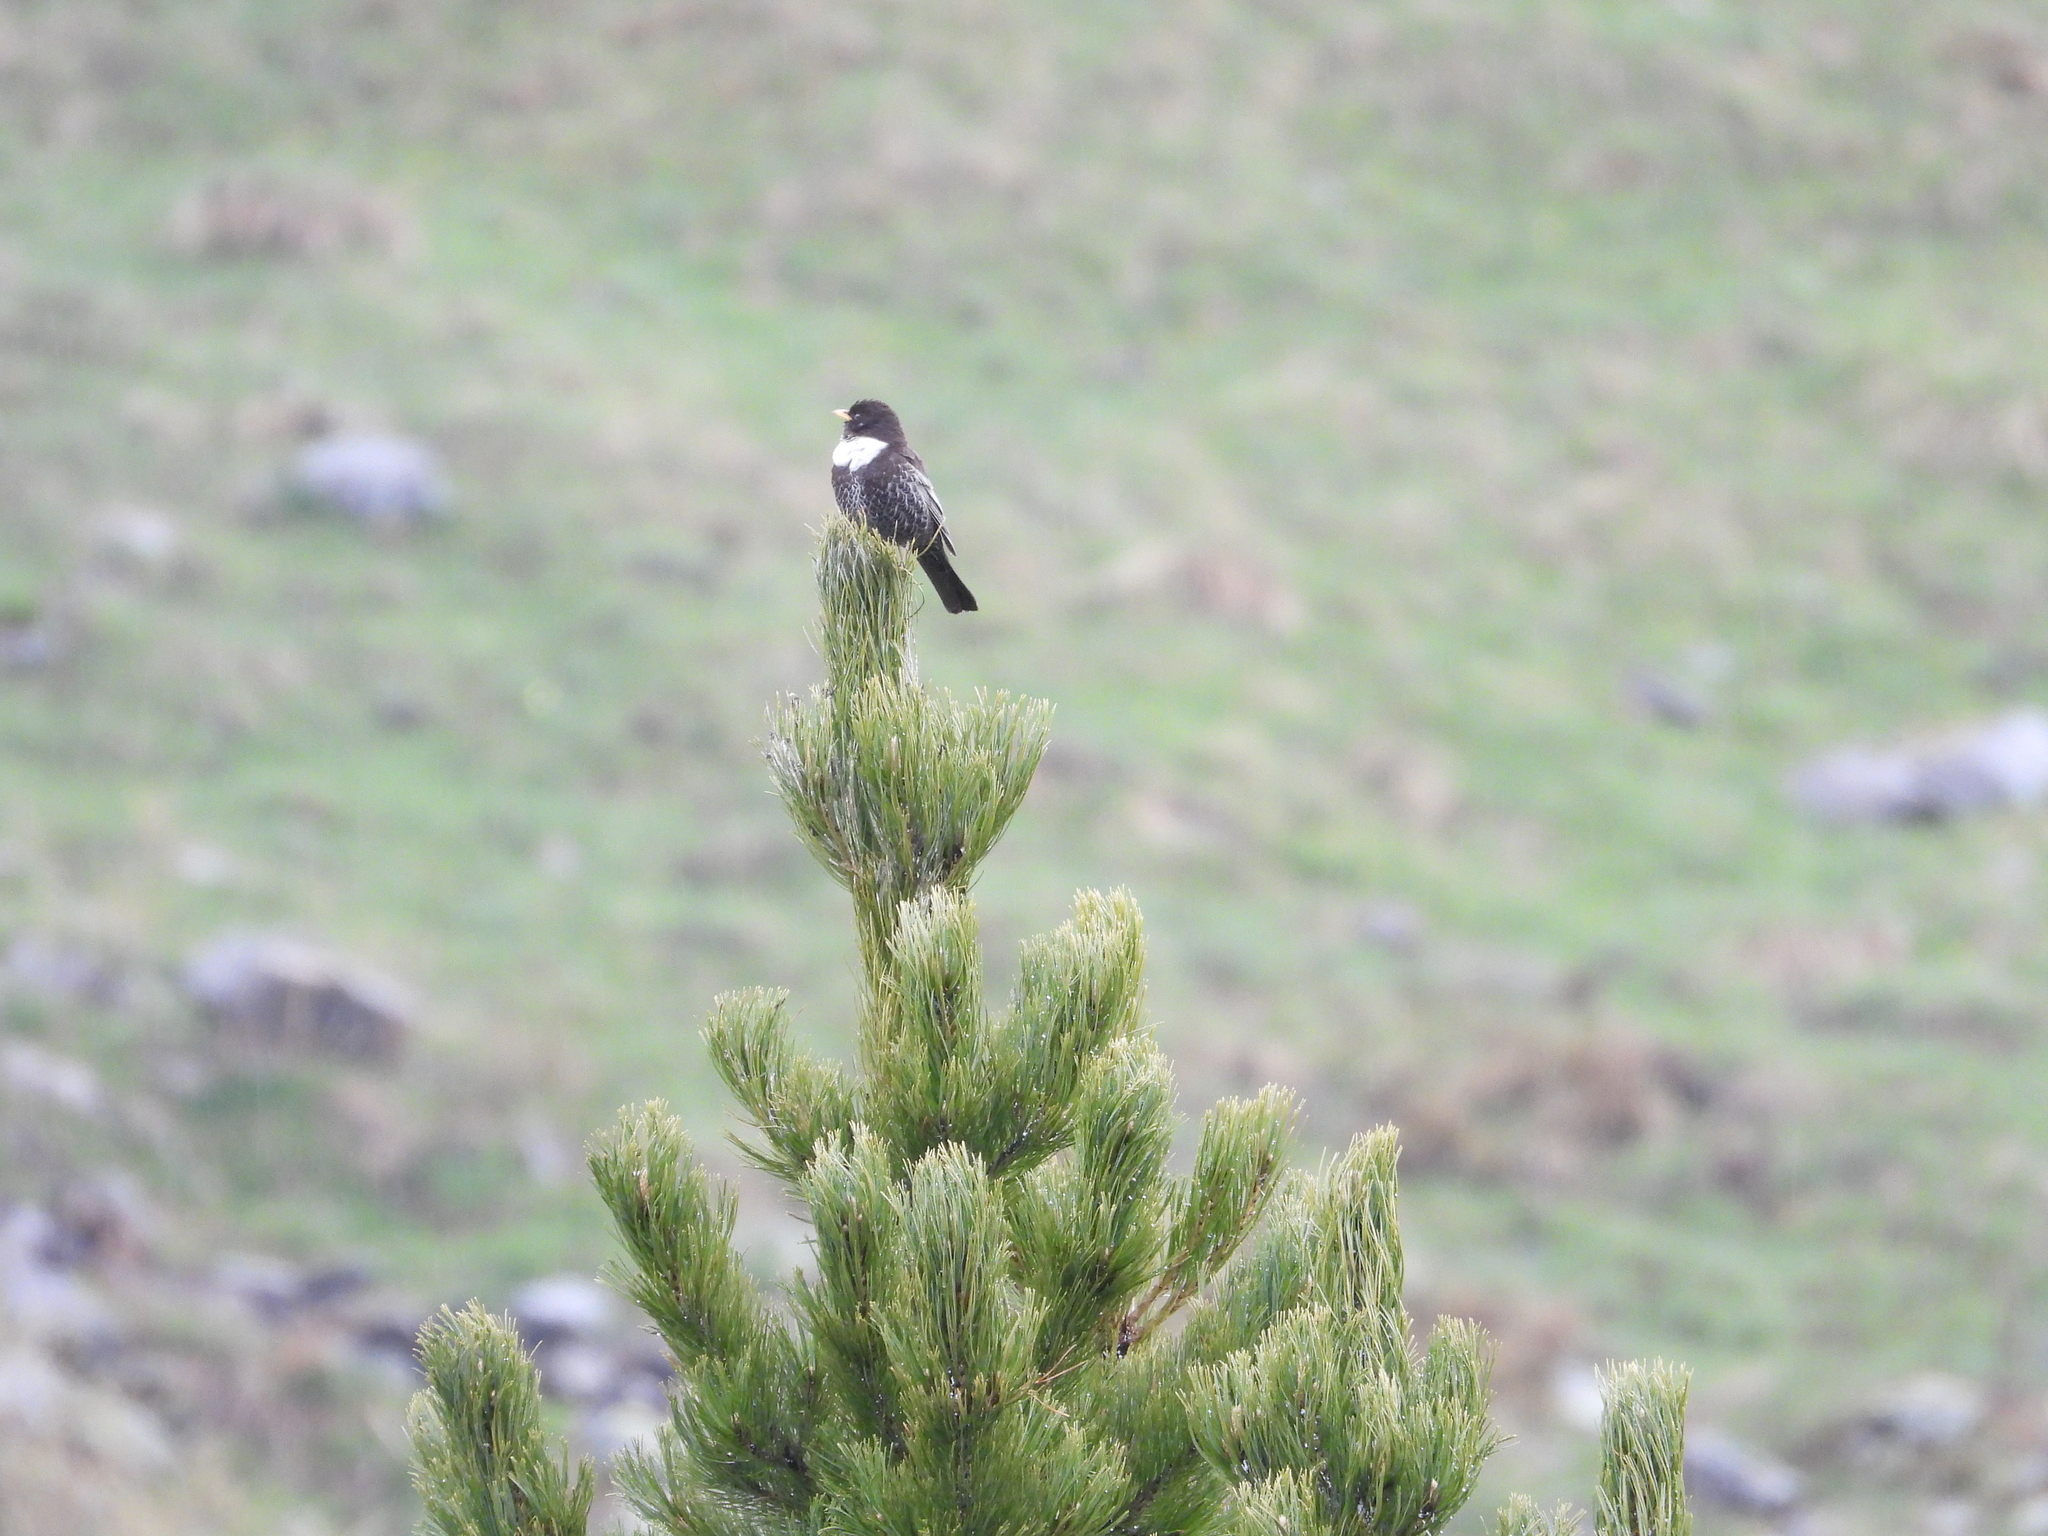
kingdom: Animalia
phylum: Chordata
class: Aves
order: Passeriformes
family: Turdidae
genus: Turdus
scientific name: Turdus torquatus
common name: Ring ouzel
